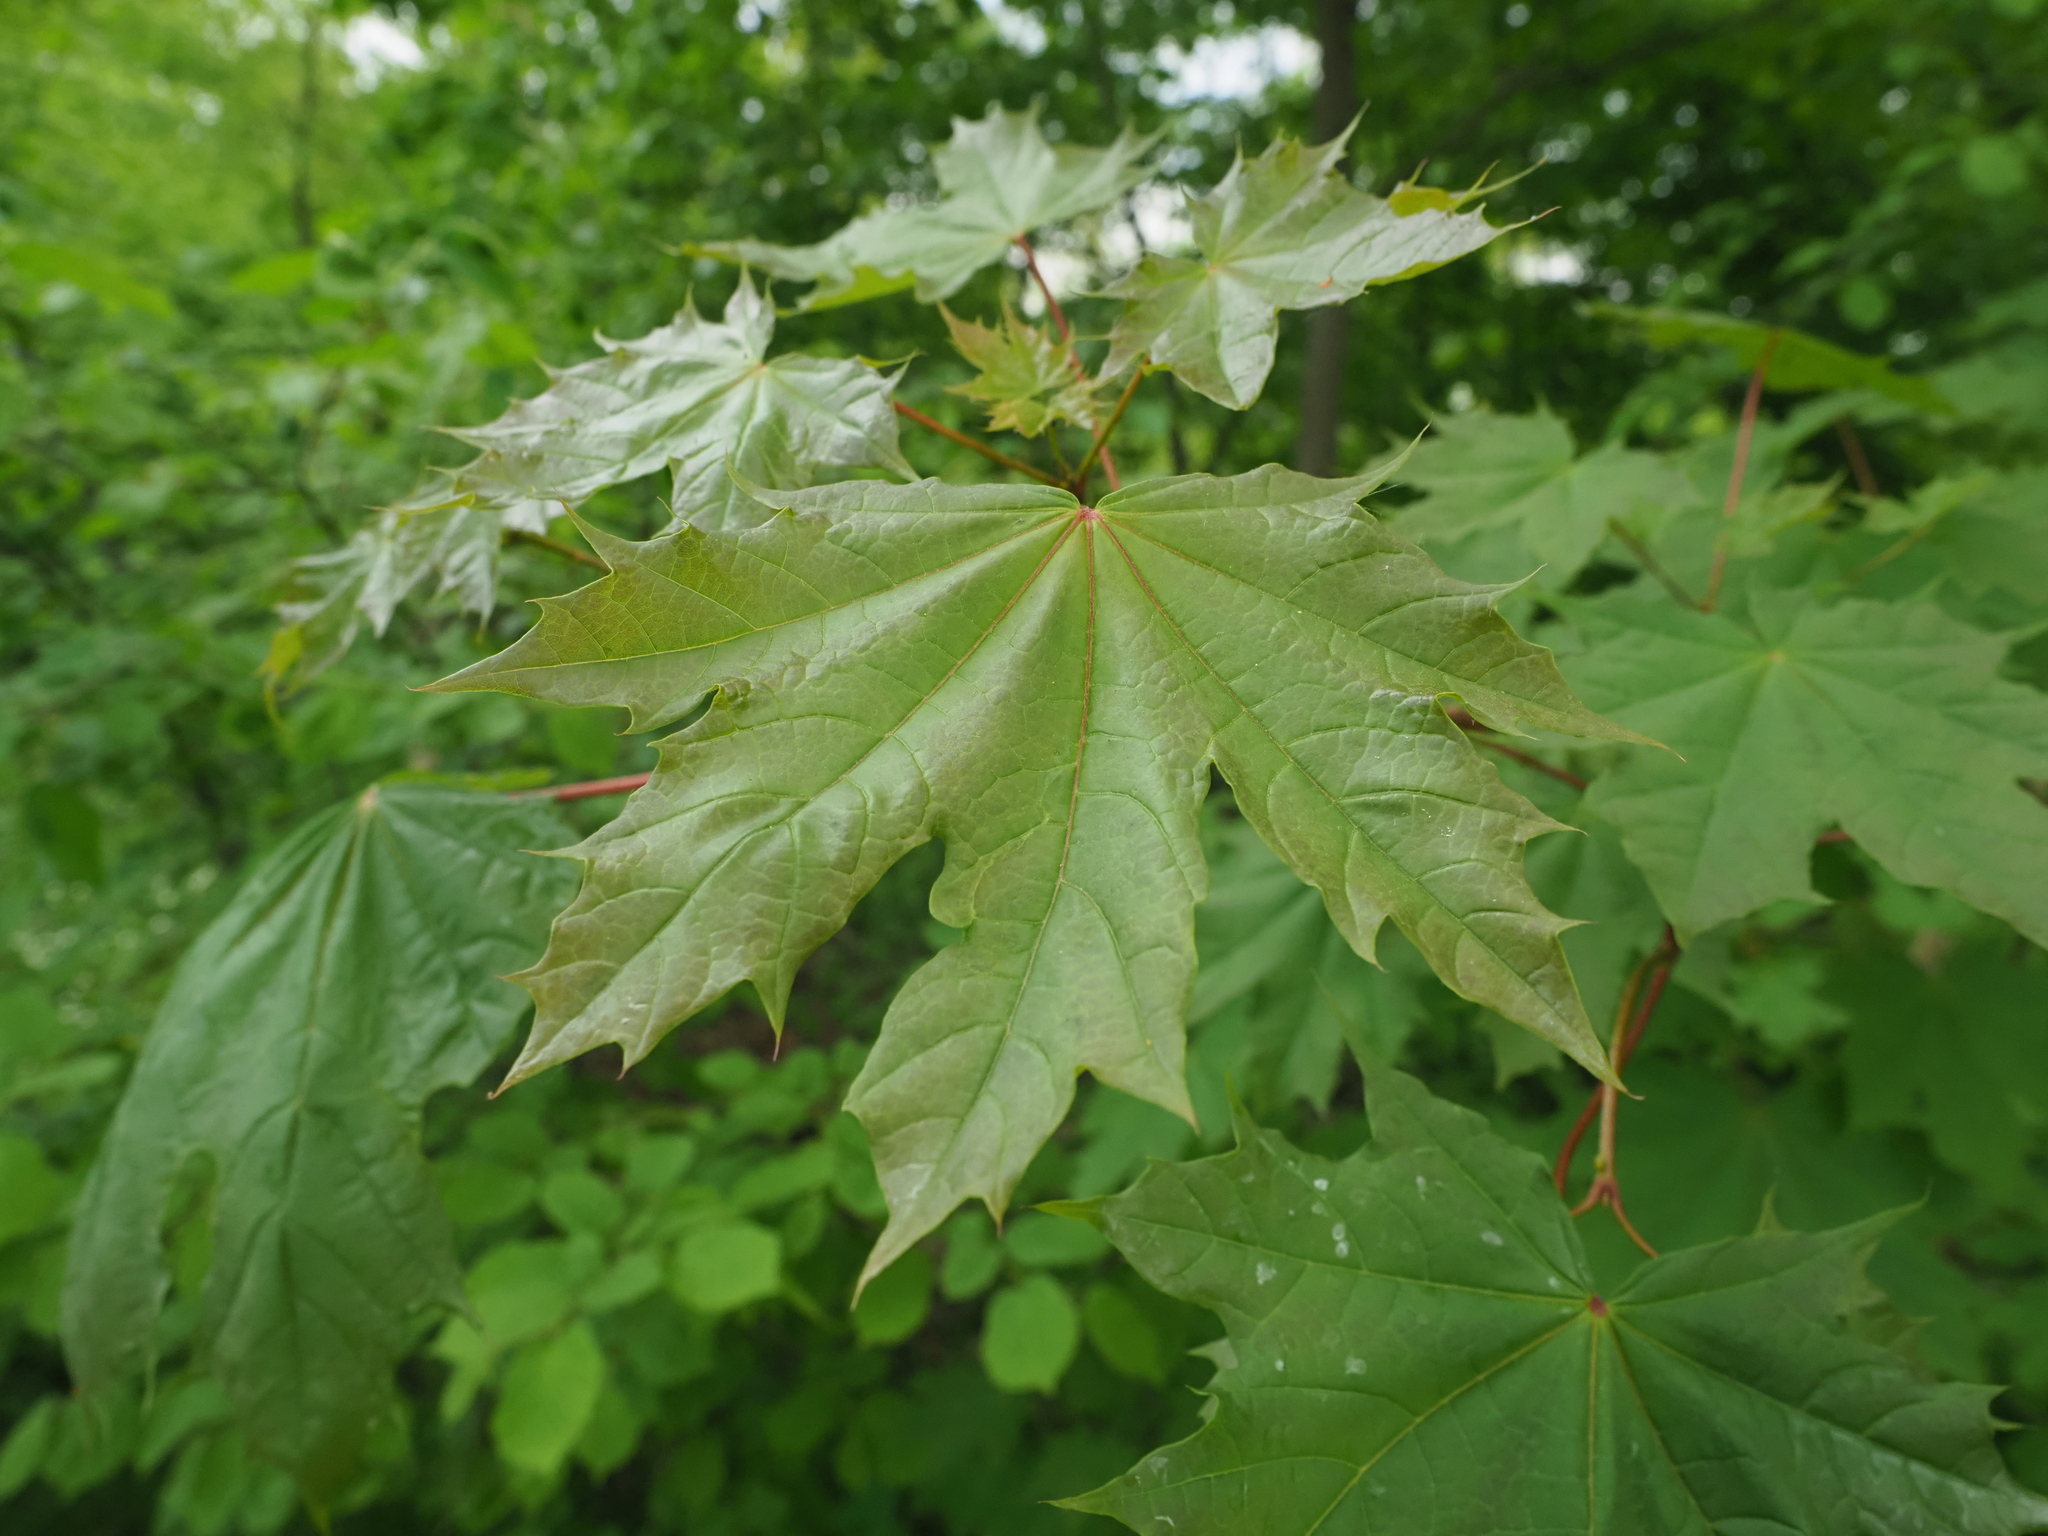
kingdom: Plantae
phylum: Tracheophyta
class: Magnoliopsida
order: Sapindales
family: Sapindaceae
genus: Acer
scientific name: Acer platanoides
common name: Norway maple
